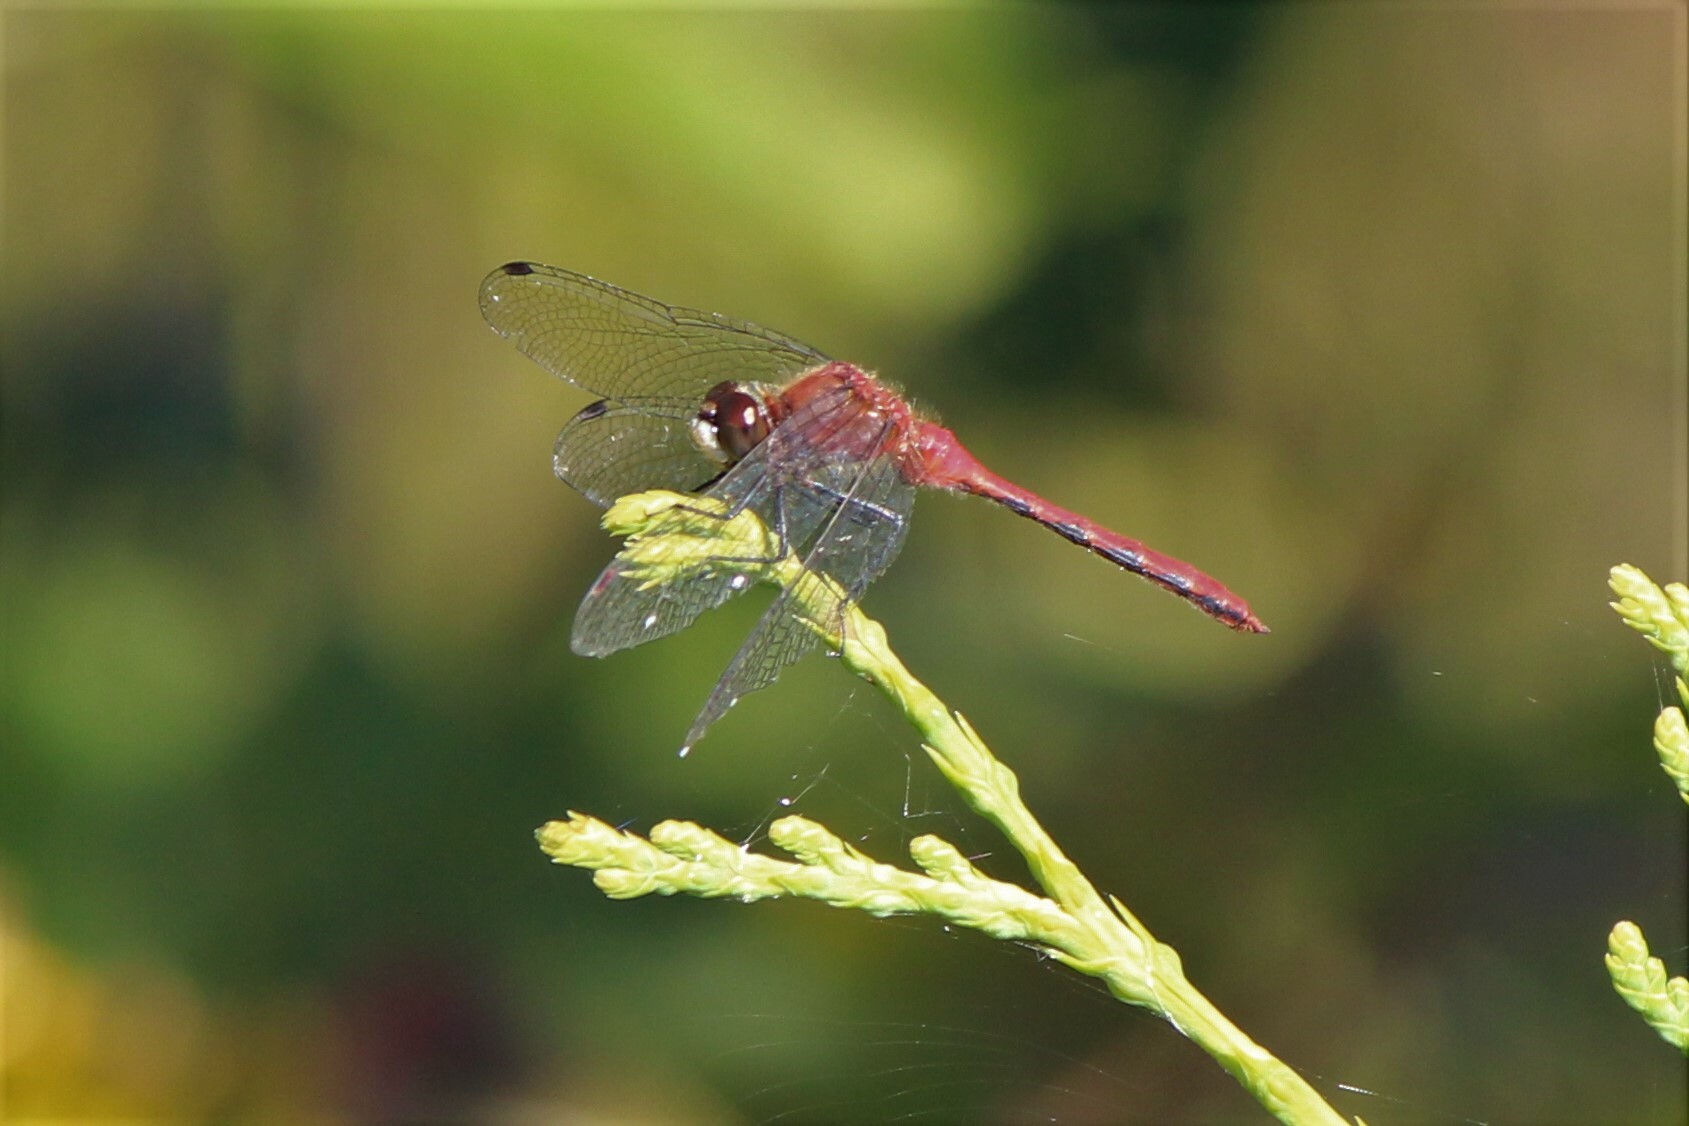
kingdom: Animalia
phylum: Arthropoda
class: Insecta
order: Odonata
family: Libellulidae
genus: Sympetrum
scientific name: Sympetrum obtrusum
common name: White-faced meadowhawk
